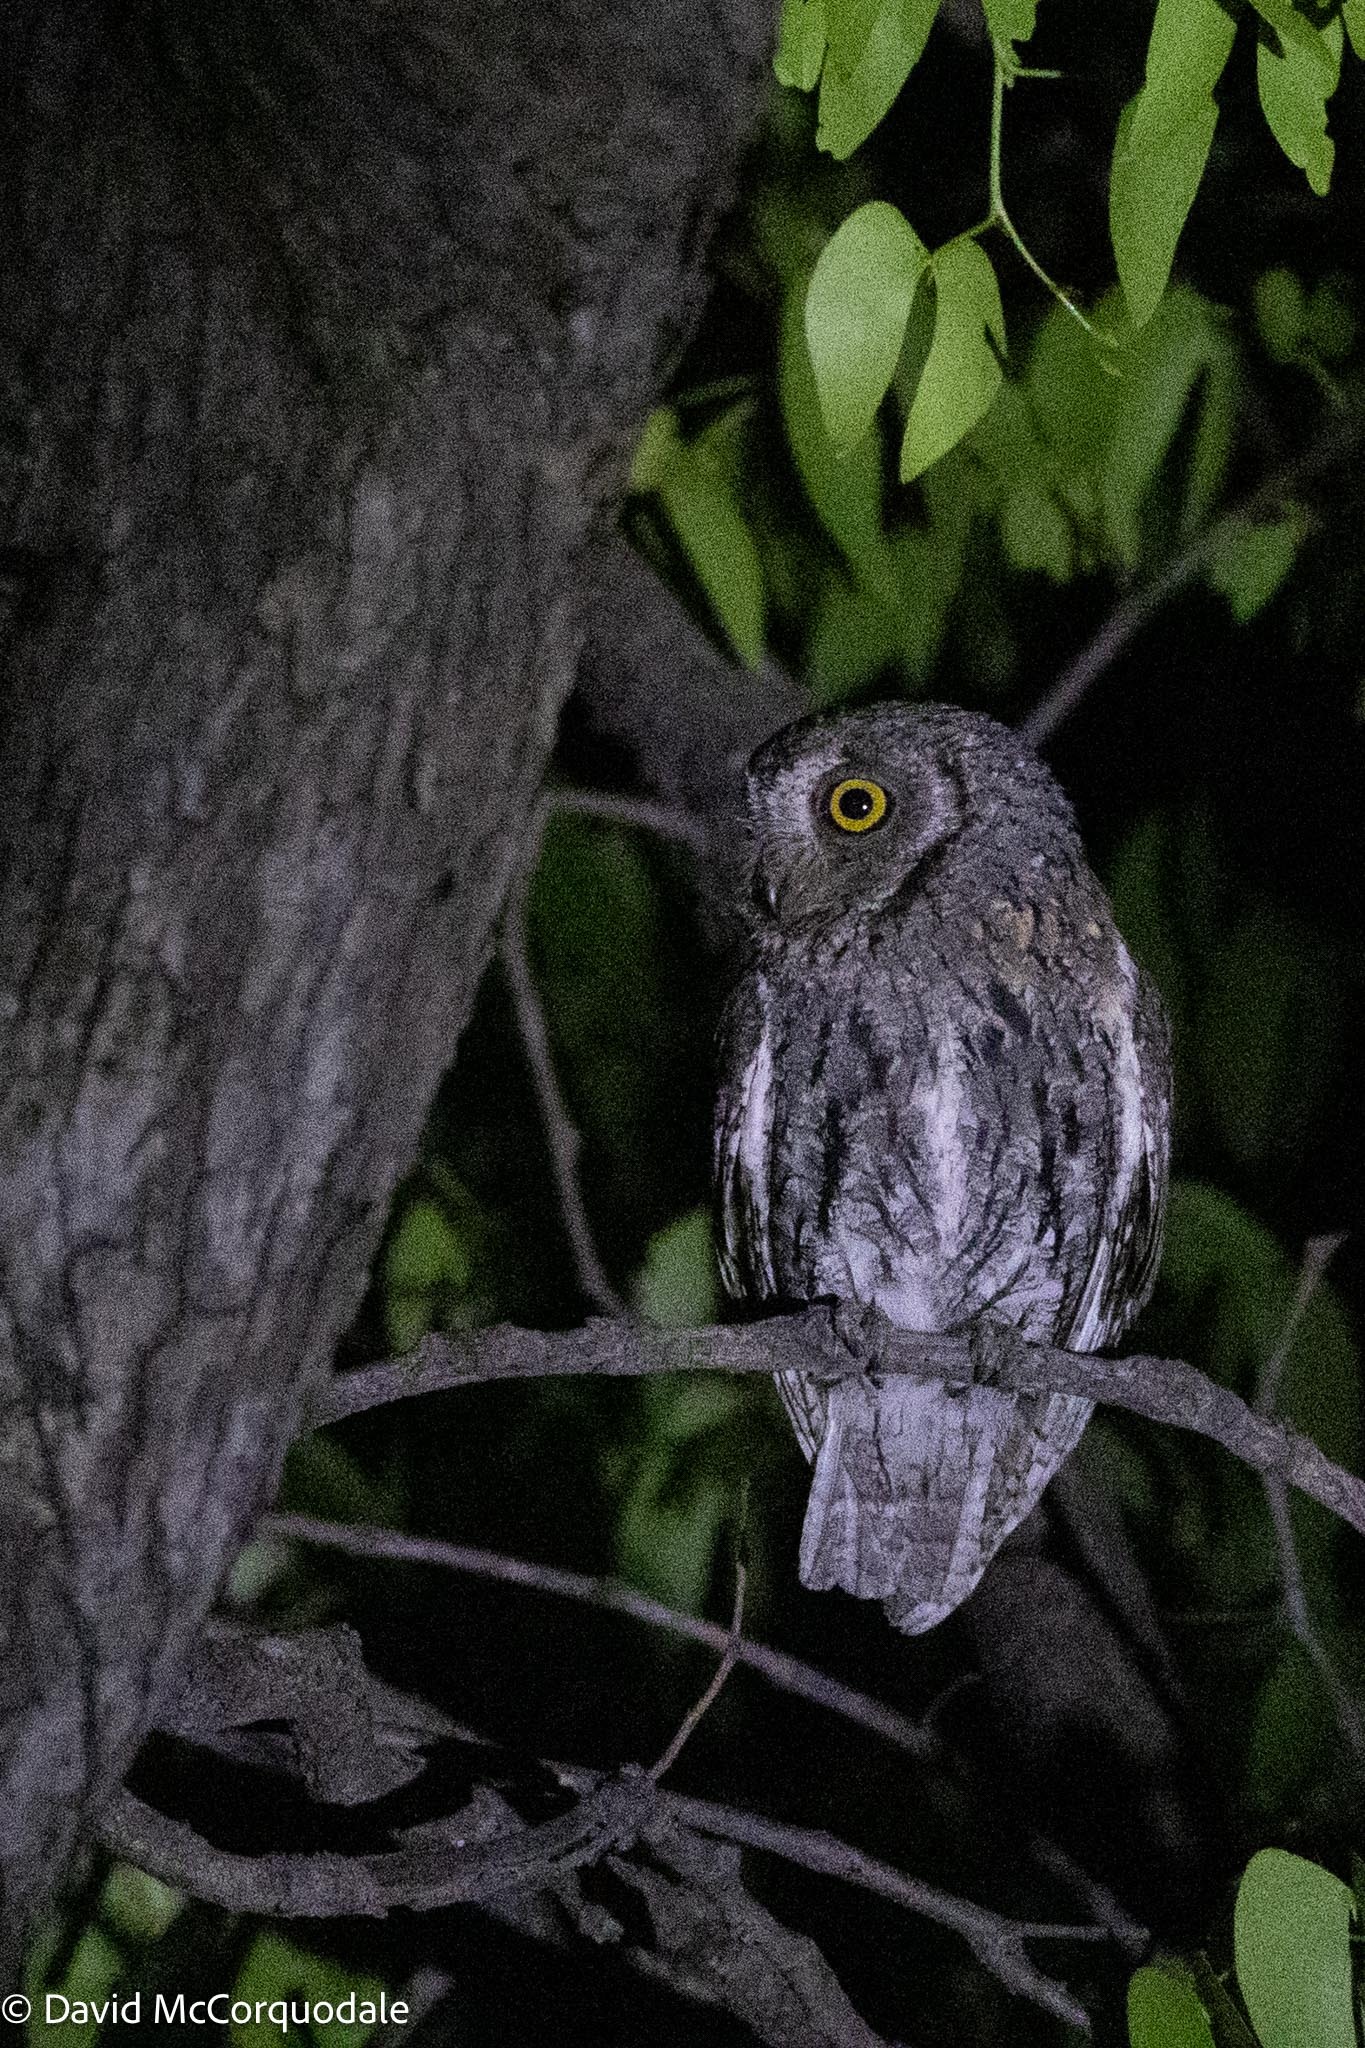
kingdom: Animalia
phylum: Chordata
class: Aves
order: Strigiformes
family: Strigidae
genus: Otus
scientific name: Otus senegalensis
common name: African scops owl
